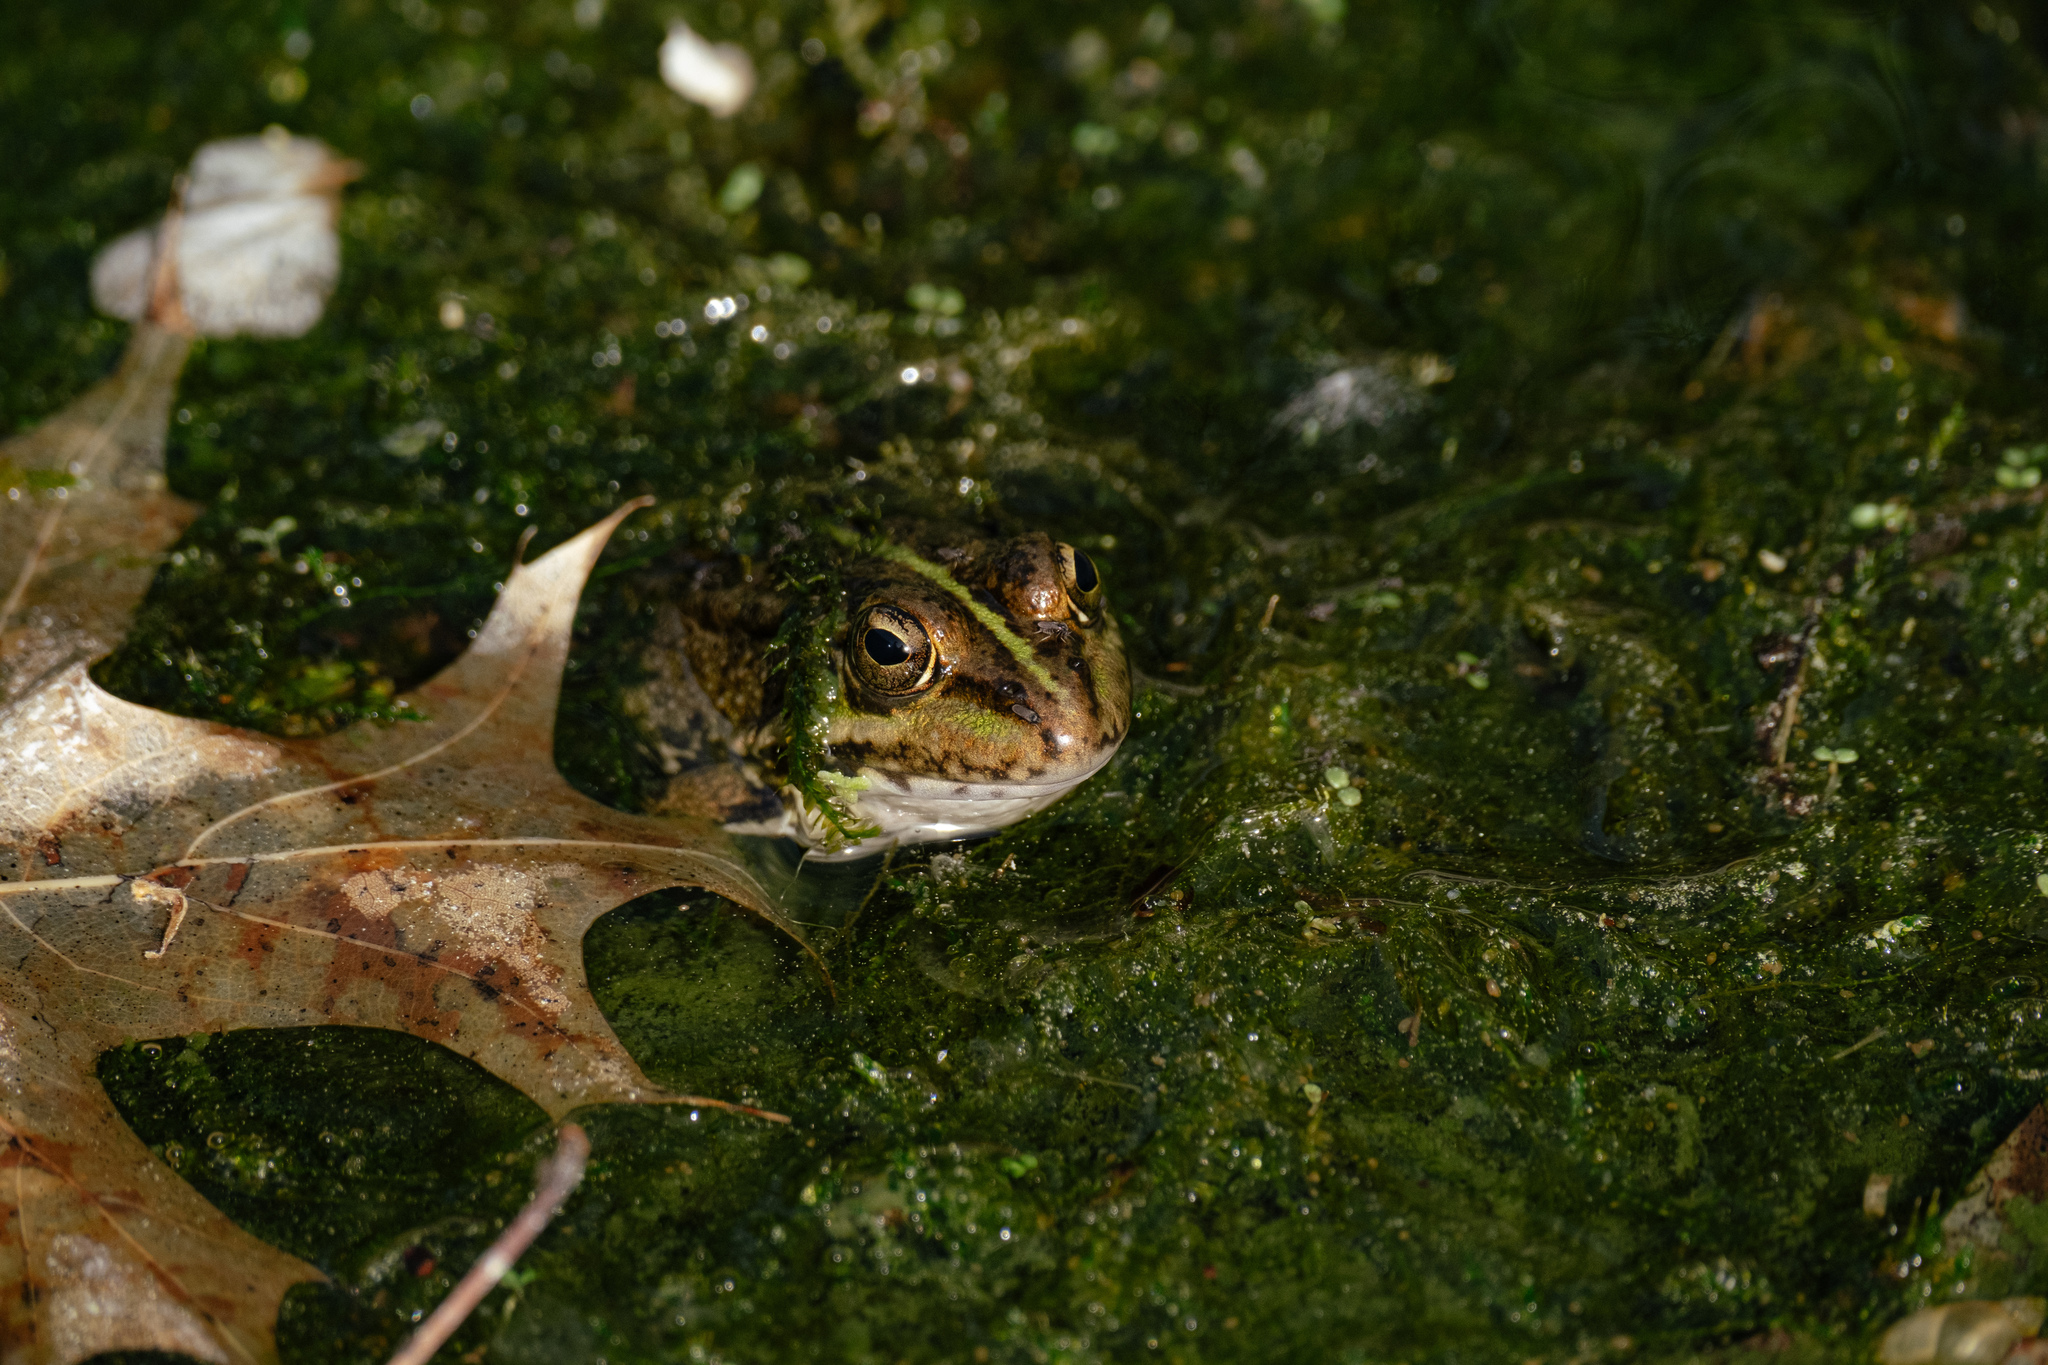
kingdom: Animalia
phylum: Chordata
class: Amphibia
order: Anura
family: Ranidae
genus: Pelophylax
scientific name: Pelophylax perezi
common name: Perez's frog
